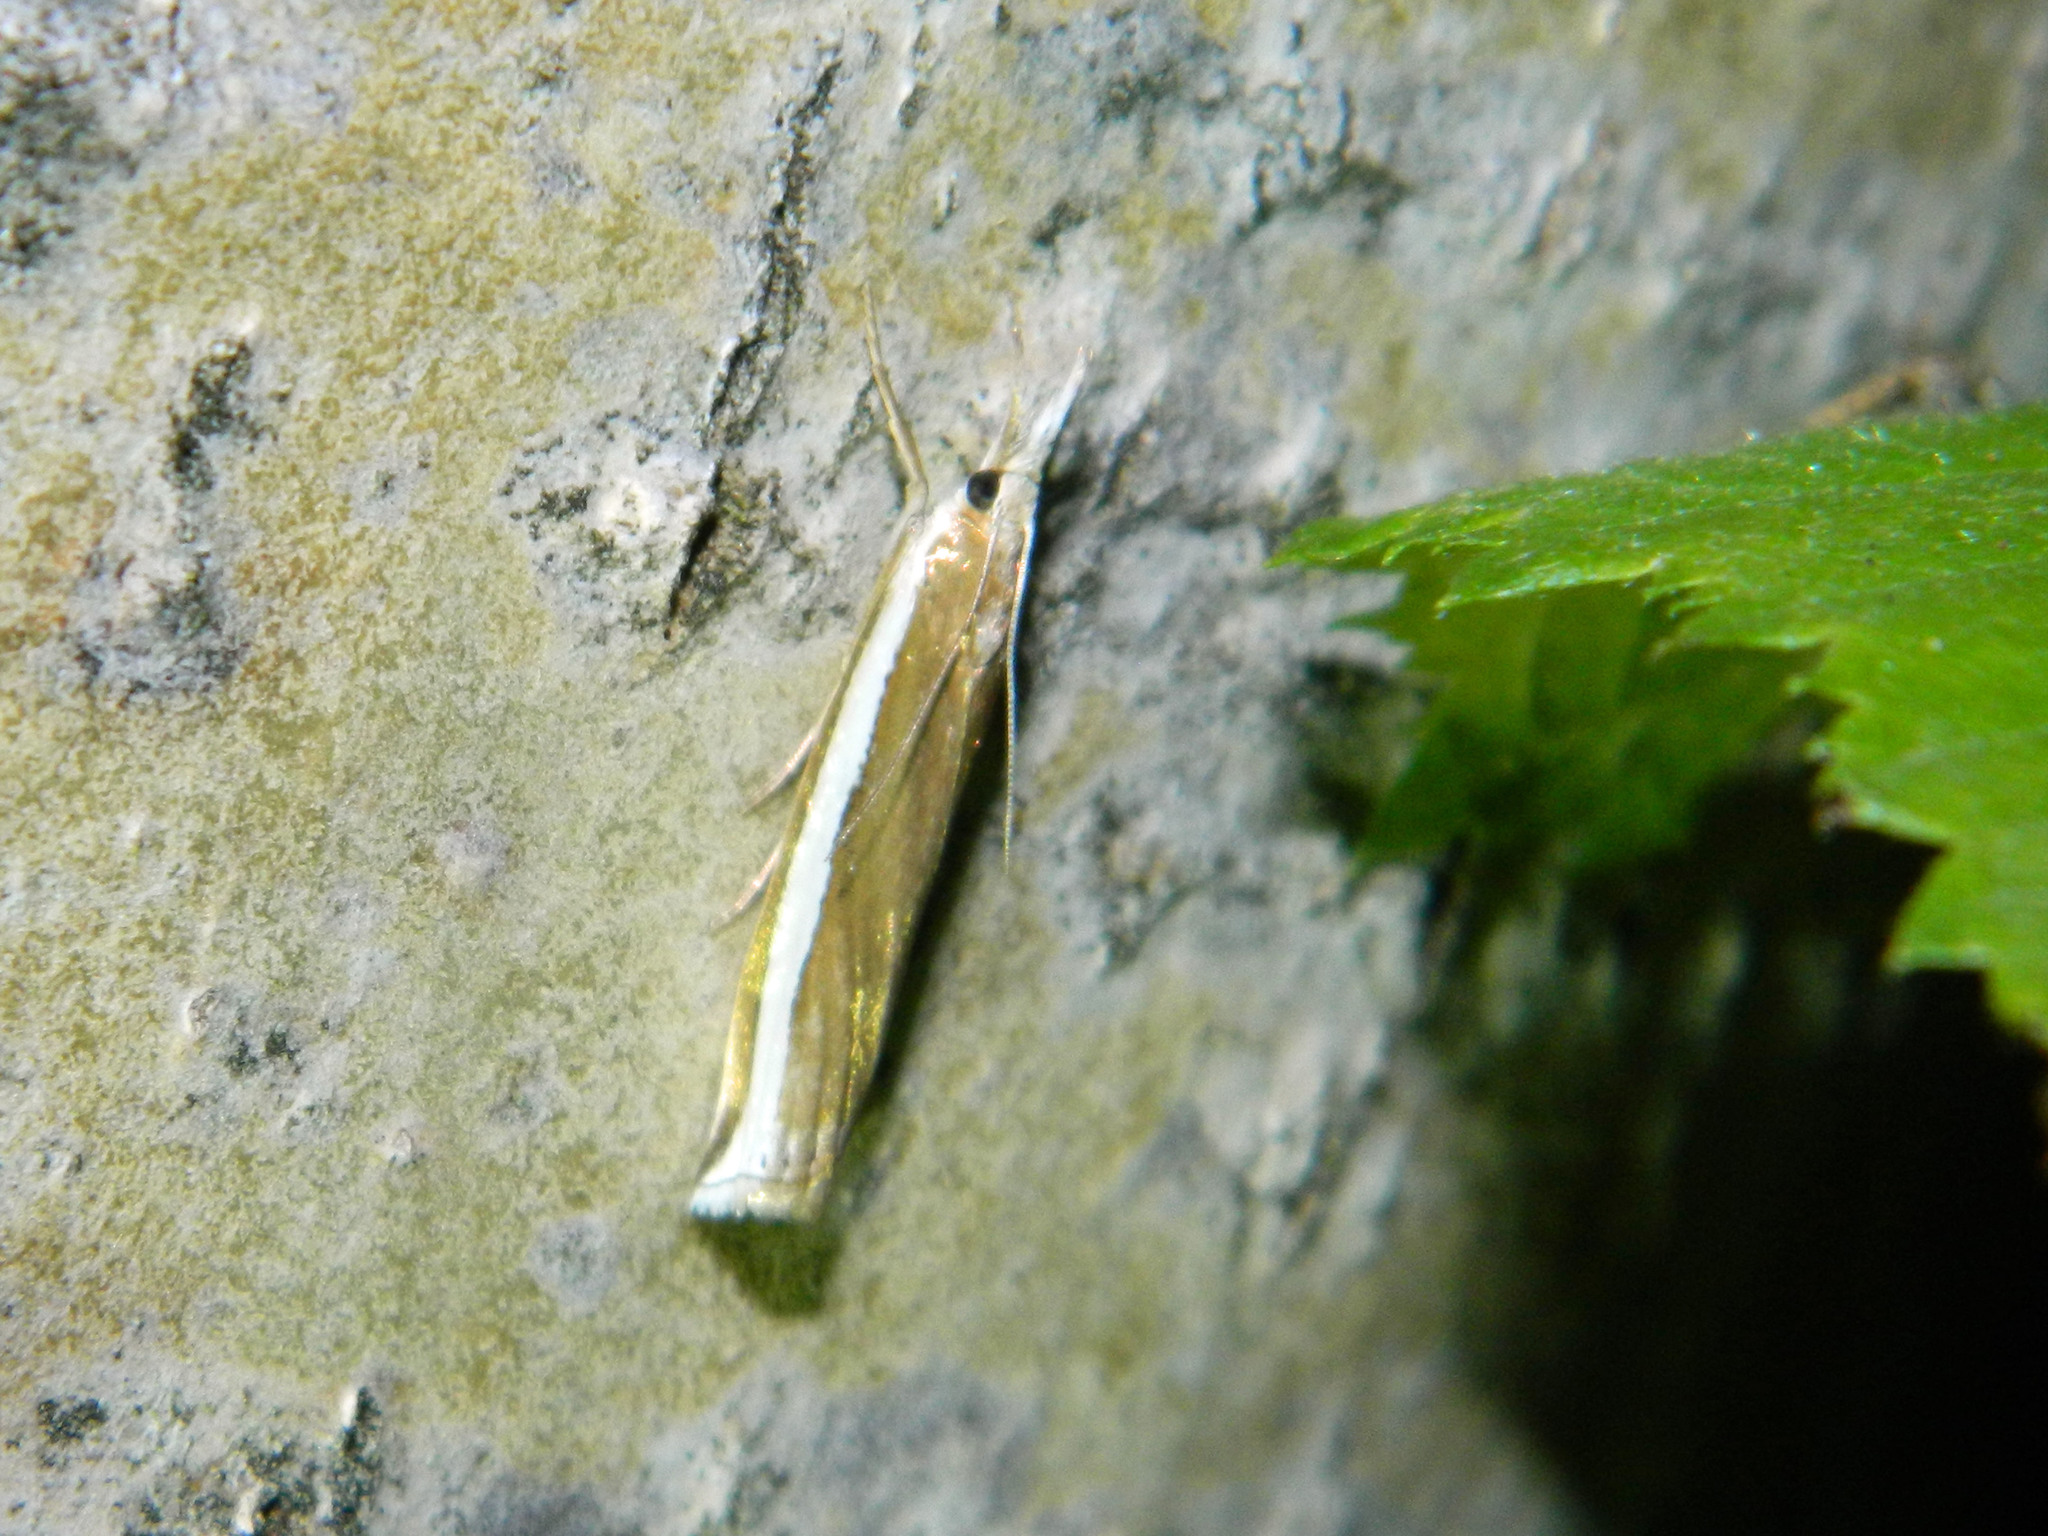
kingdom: Animalia
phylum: Arthropoda
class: Insecta
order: Lepidoptera
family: Crambidae
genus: Crambus
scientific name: Crambus unistriatellus
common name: Wide-stripe grass-veneer moth
